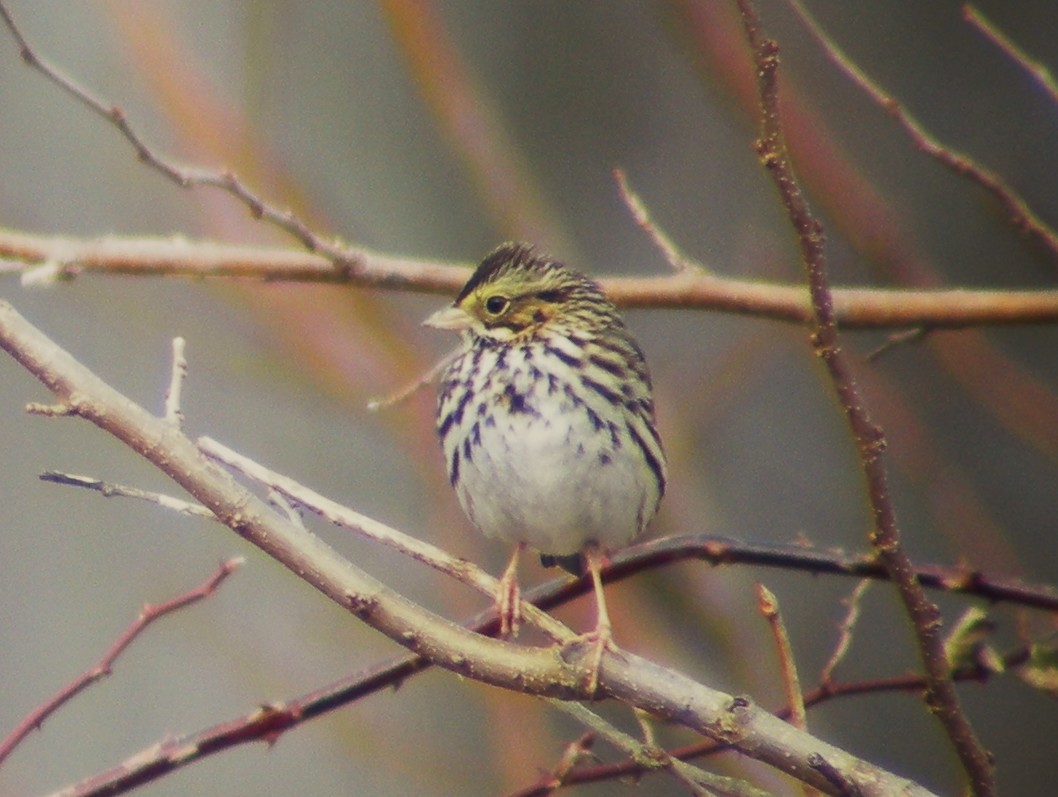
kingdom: Animalia
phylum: Chordata
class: Aves
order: Passeriformes
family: Passerellidae
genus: Passerculus
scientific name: Passerculus sandwichensis
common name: Savannah sparrow
